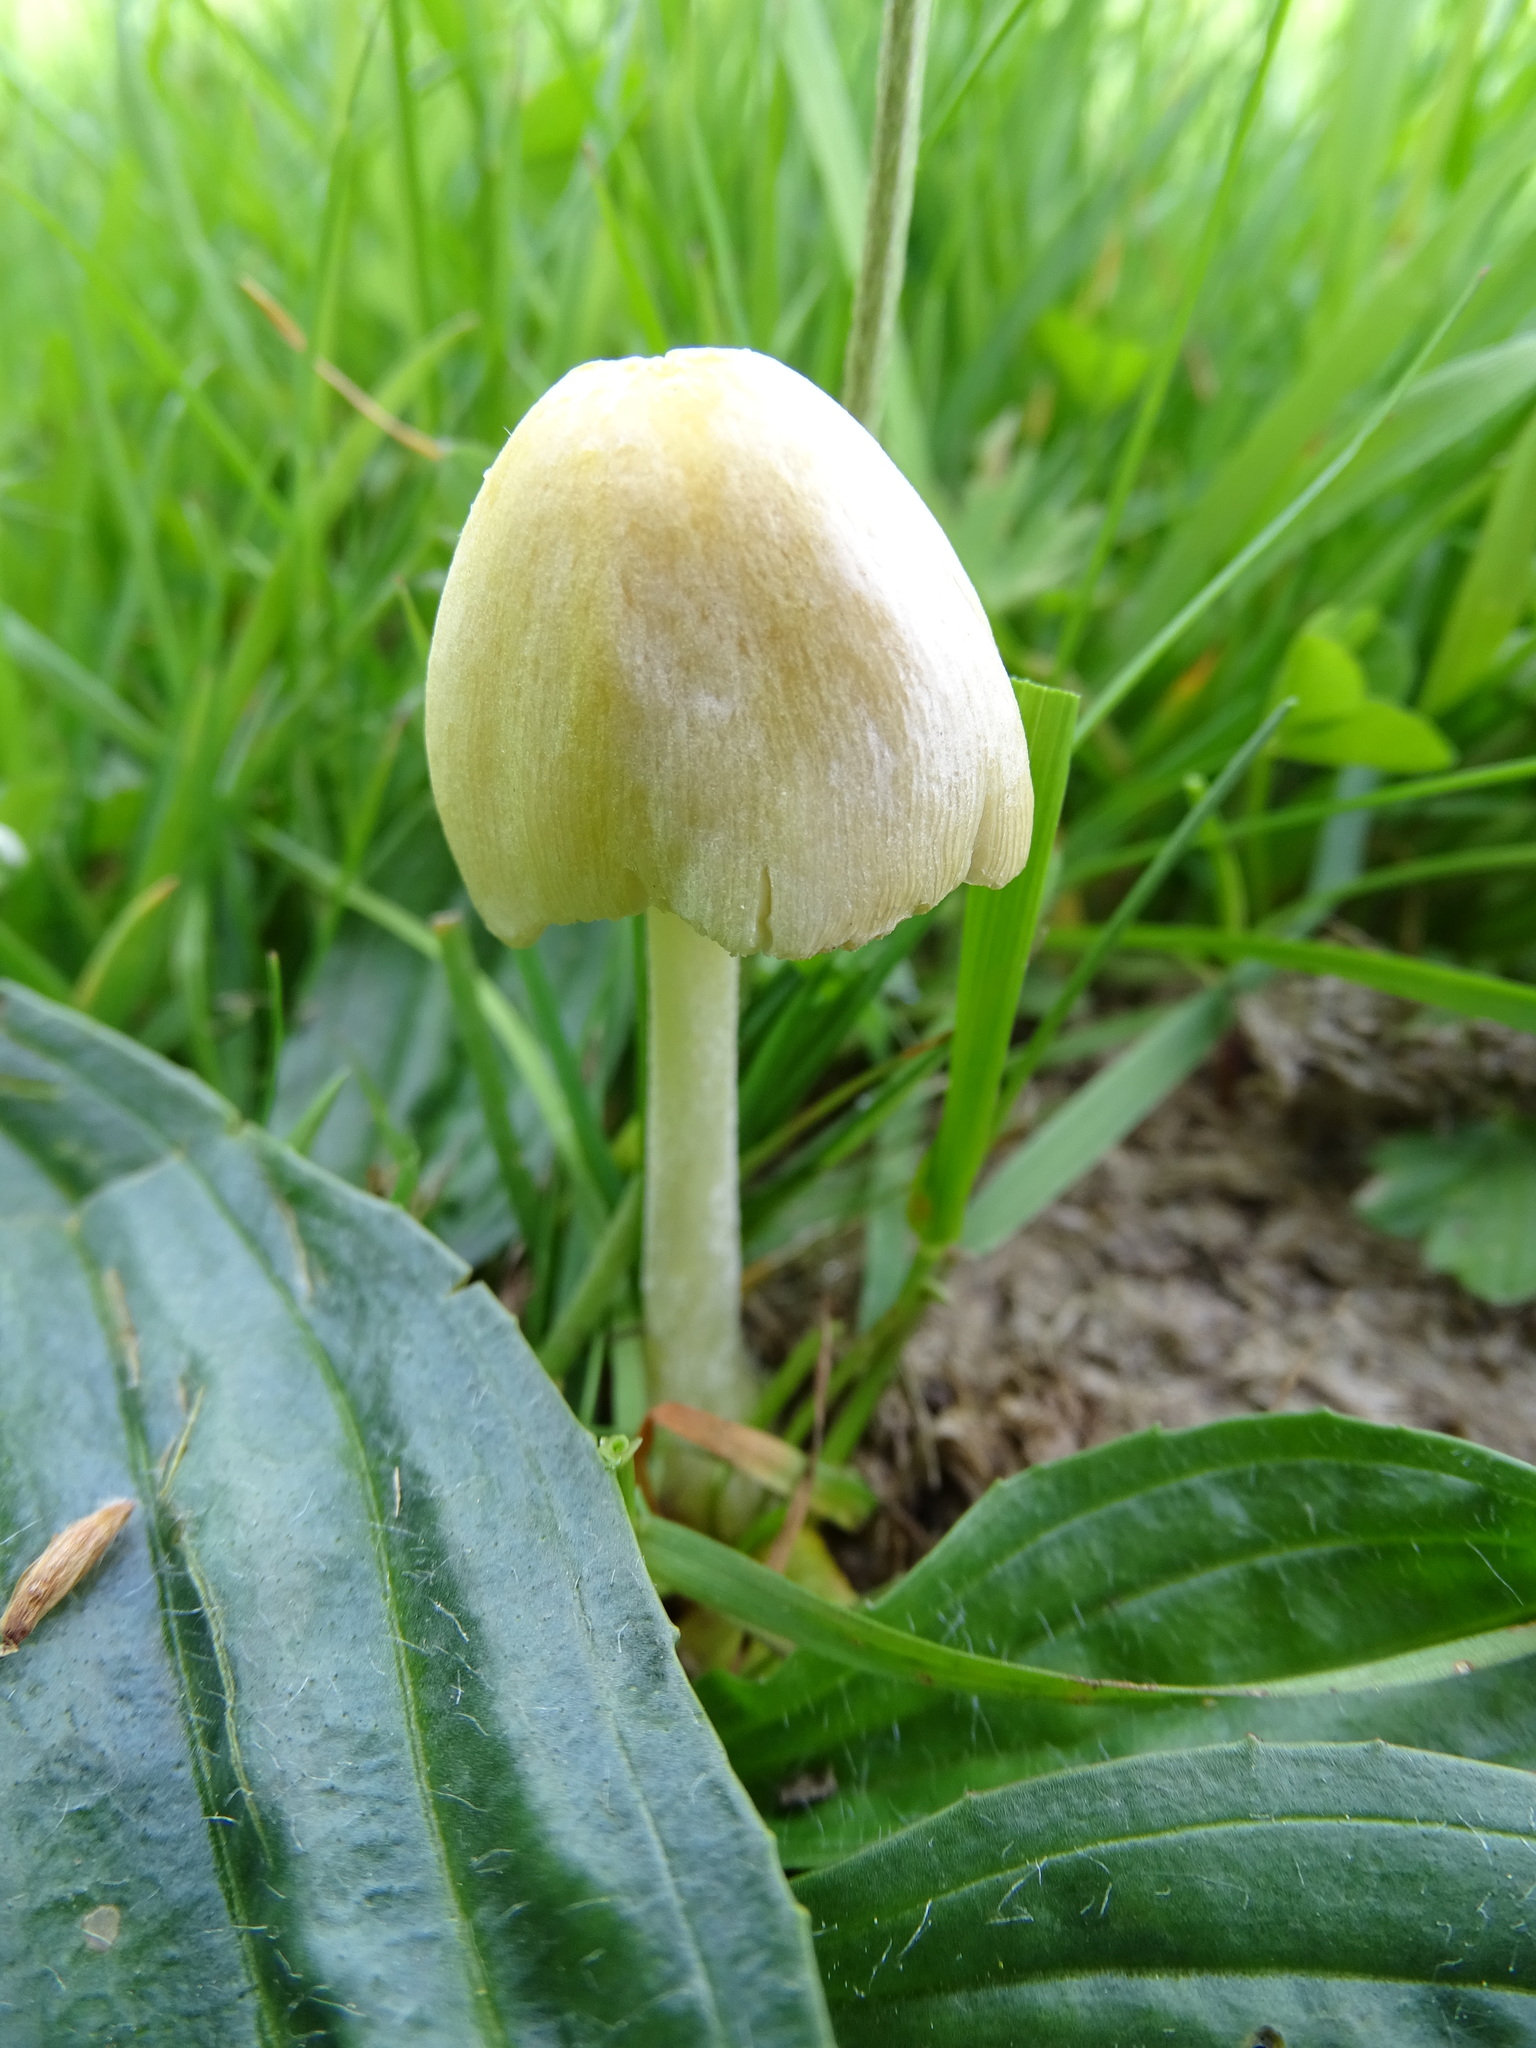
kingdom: Fungi
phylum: Basidiomycota
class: Agaricomycetes
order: Agaricales
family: Bolbitiaceae
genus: Bolbitius
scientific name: Bolbitius titubans
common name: Yellow fieldcap
